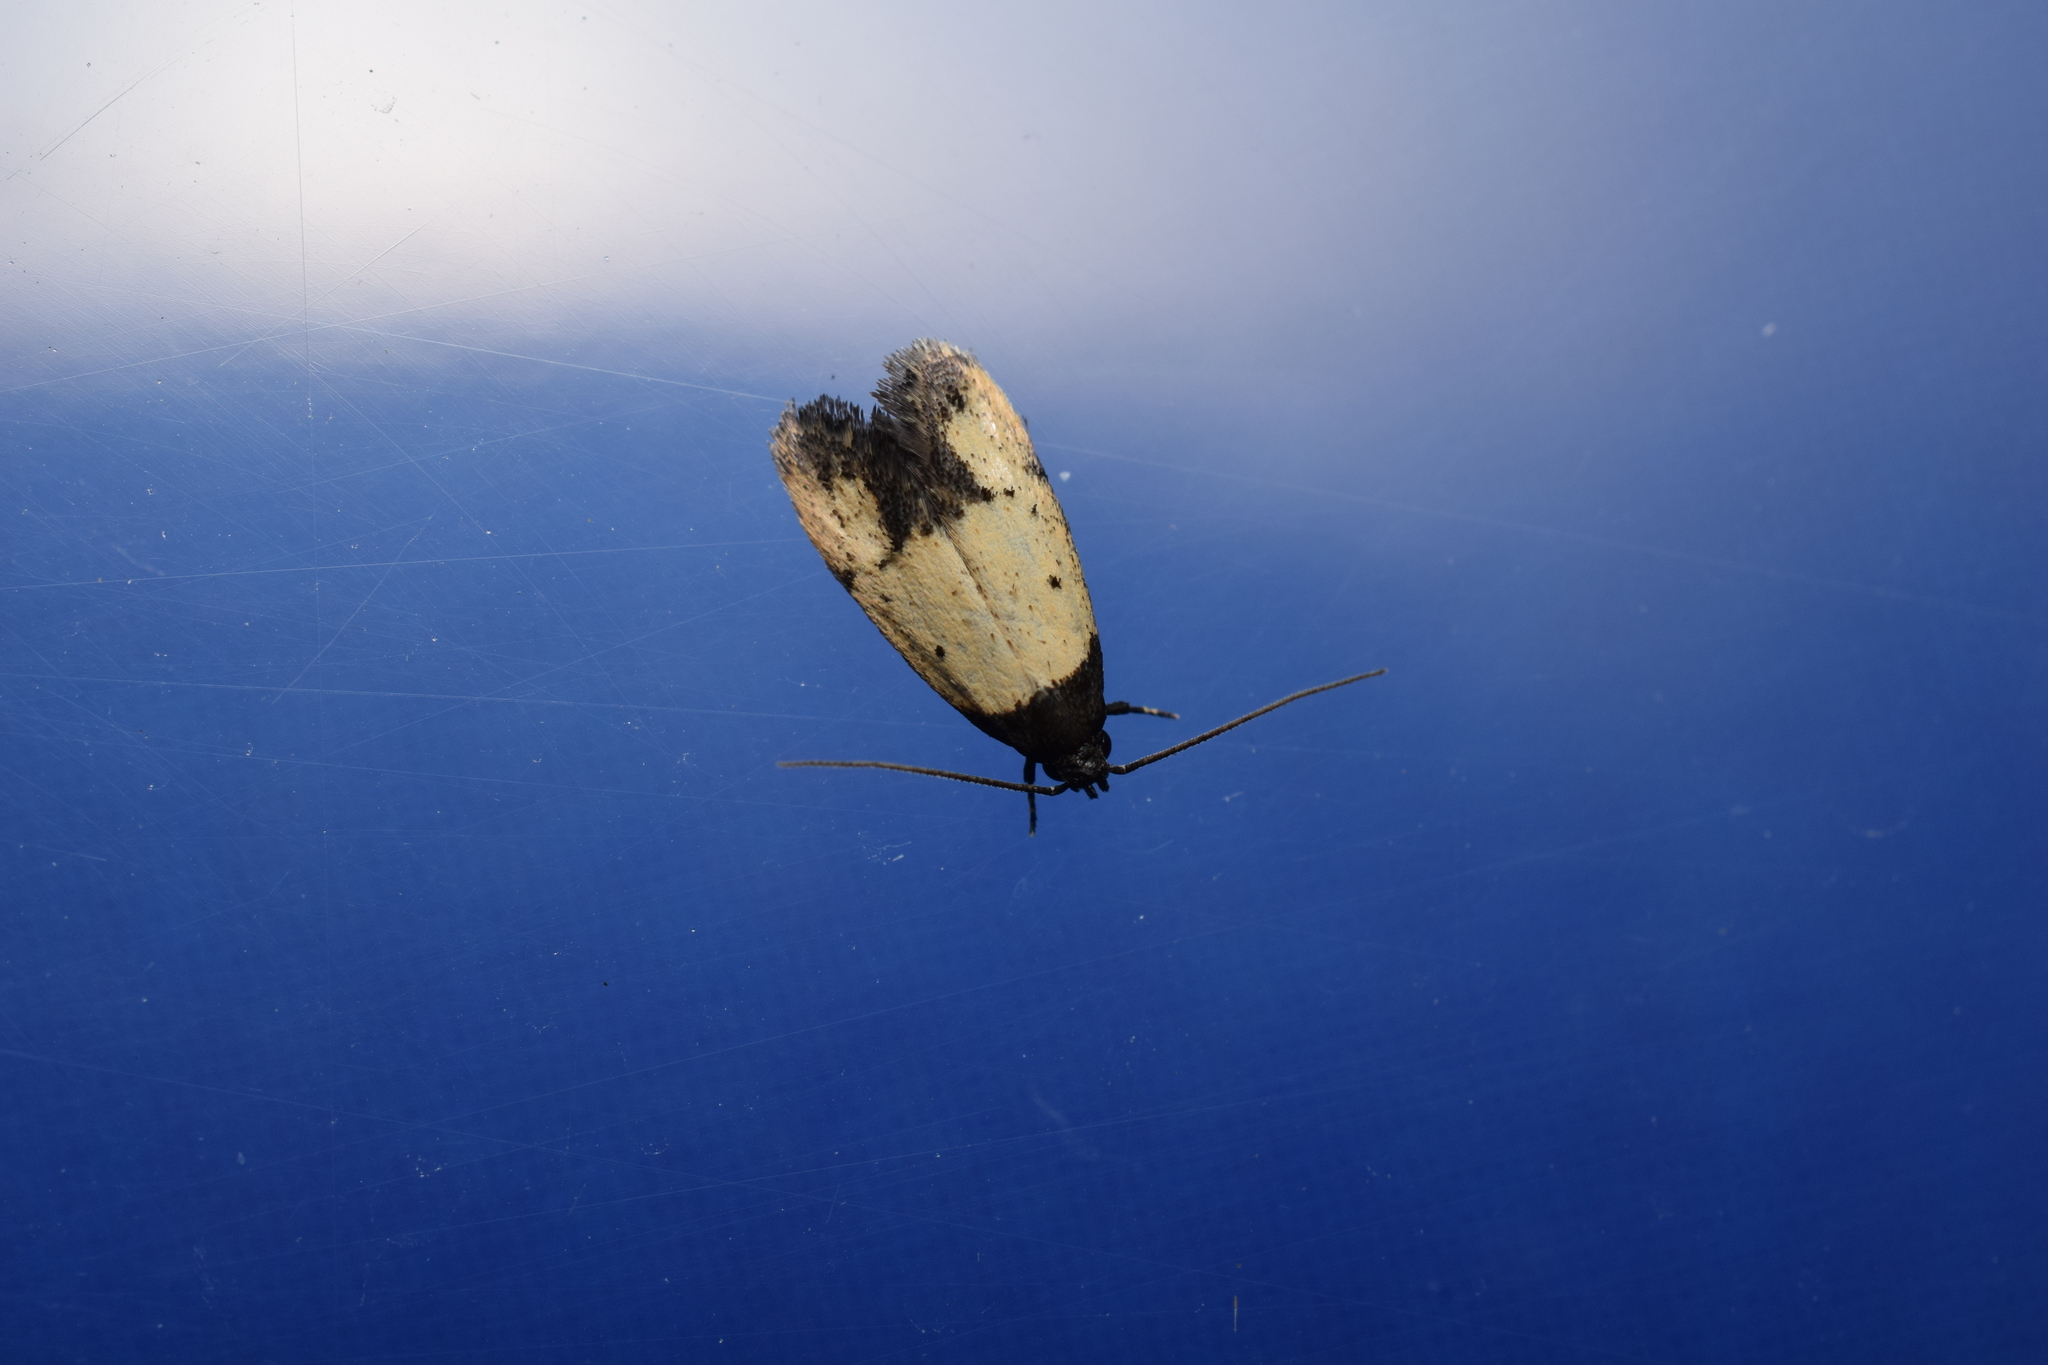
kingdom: Animalia
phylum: Arthropoda
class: Insecta
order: Lepidoptera
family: Oecophoridae
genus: Tyrolimnas
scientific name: Tyrolimnas anthraconesa
